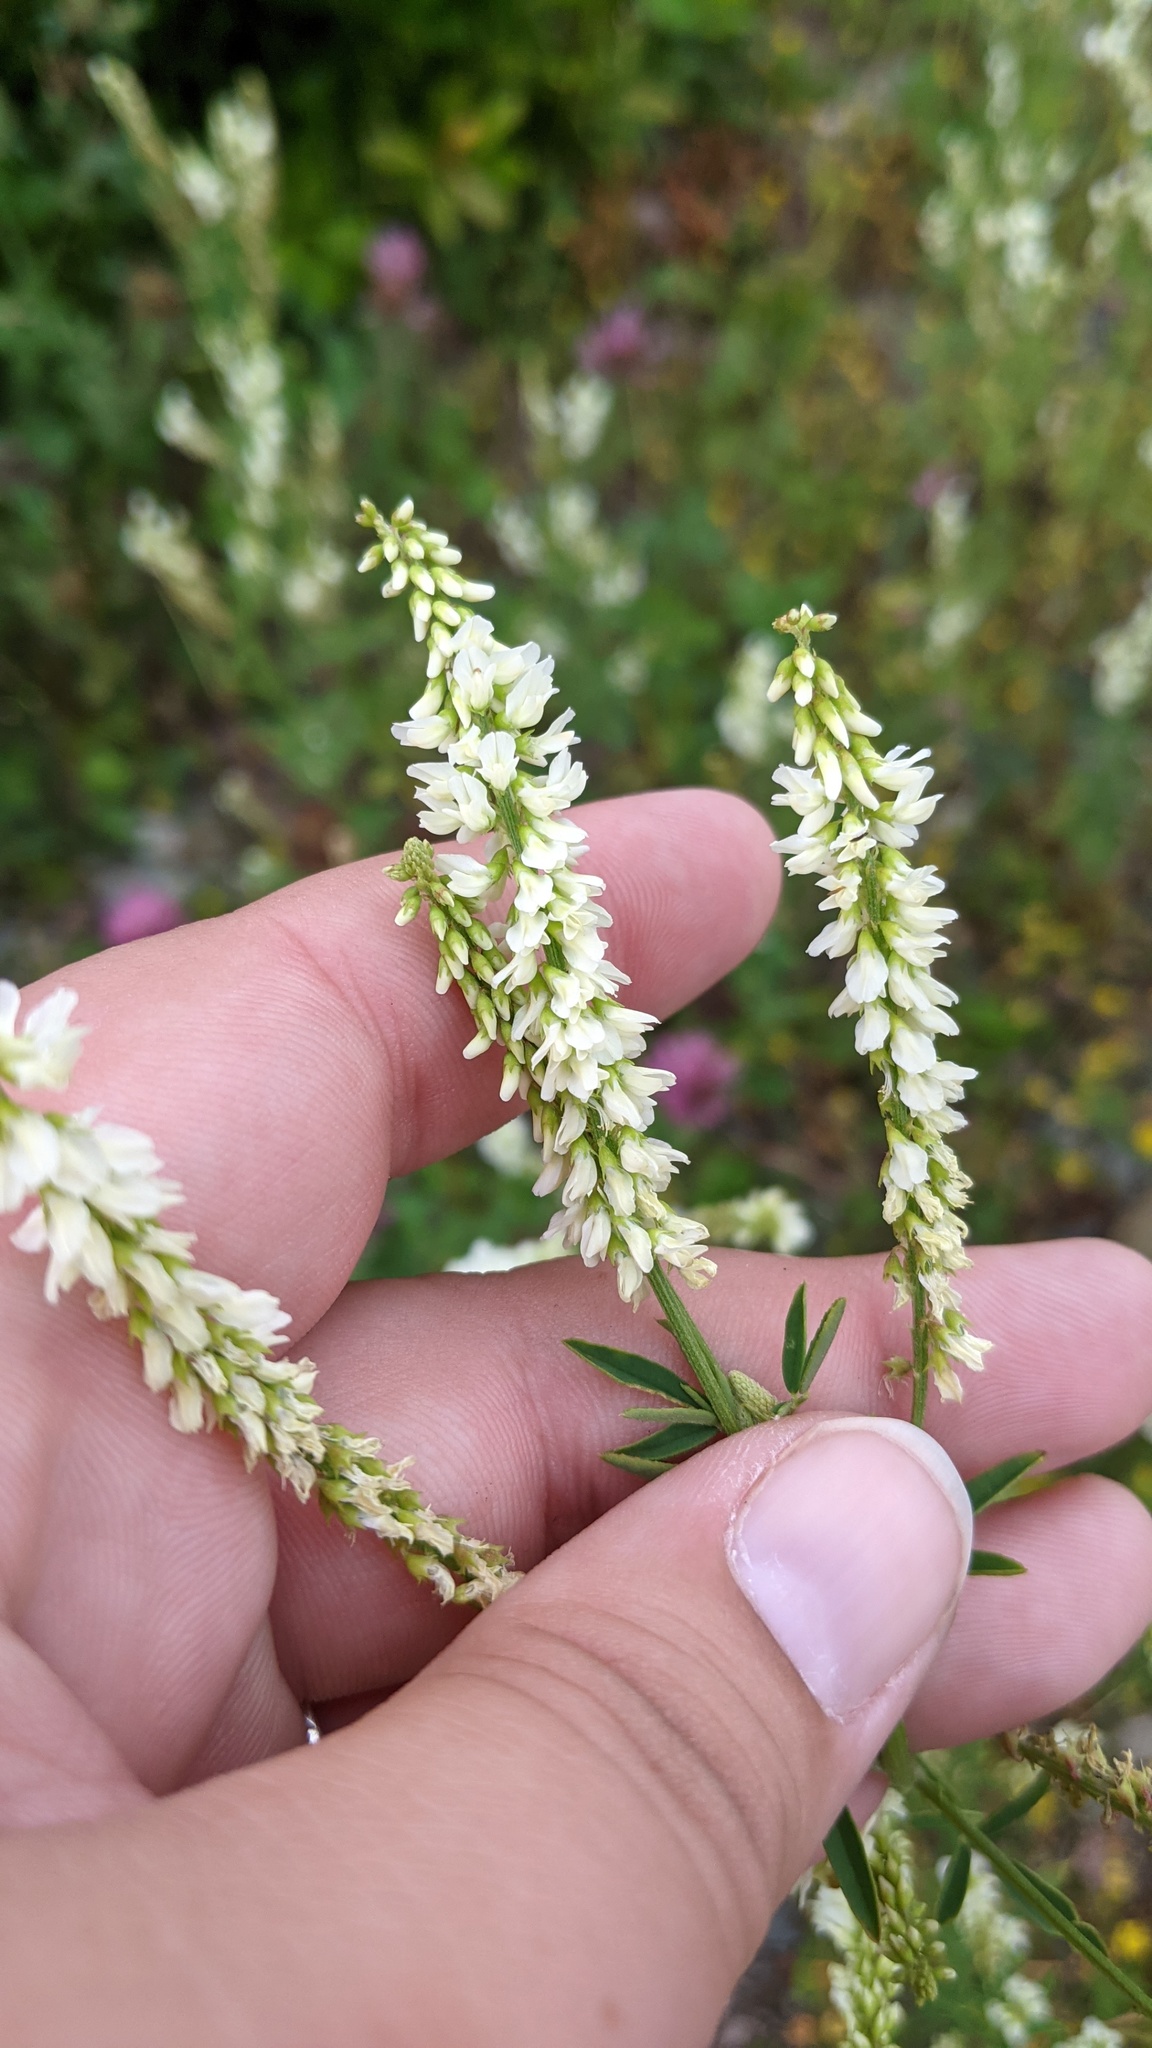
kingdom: Plantae
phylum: Tracheophyta
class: Magnoliopsida
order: Fabales
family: Fabaceae
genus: Melilotus
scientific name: Melilotus albus
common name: White melilot
